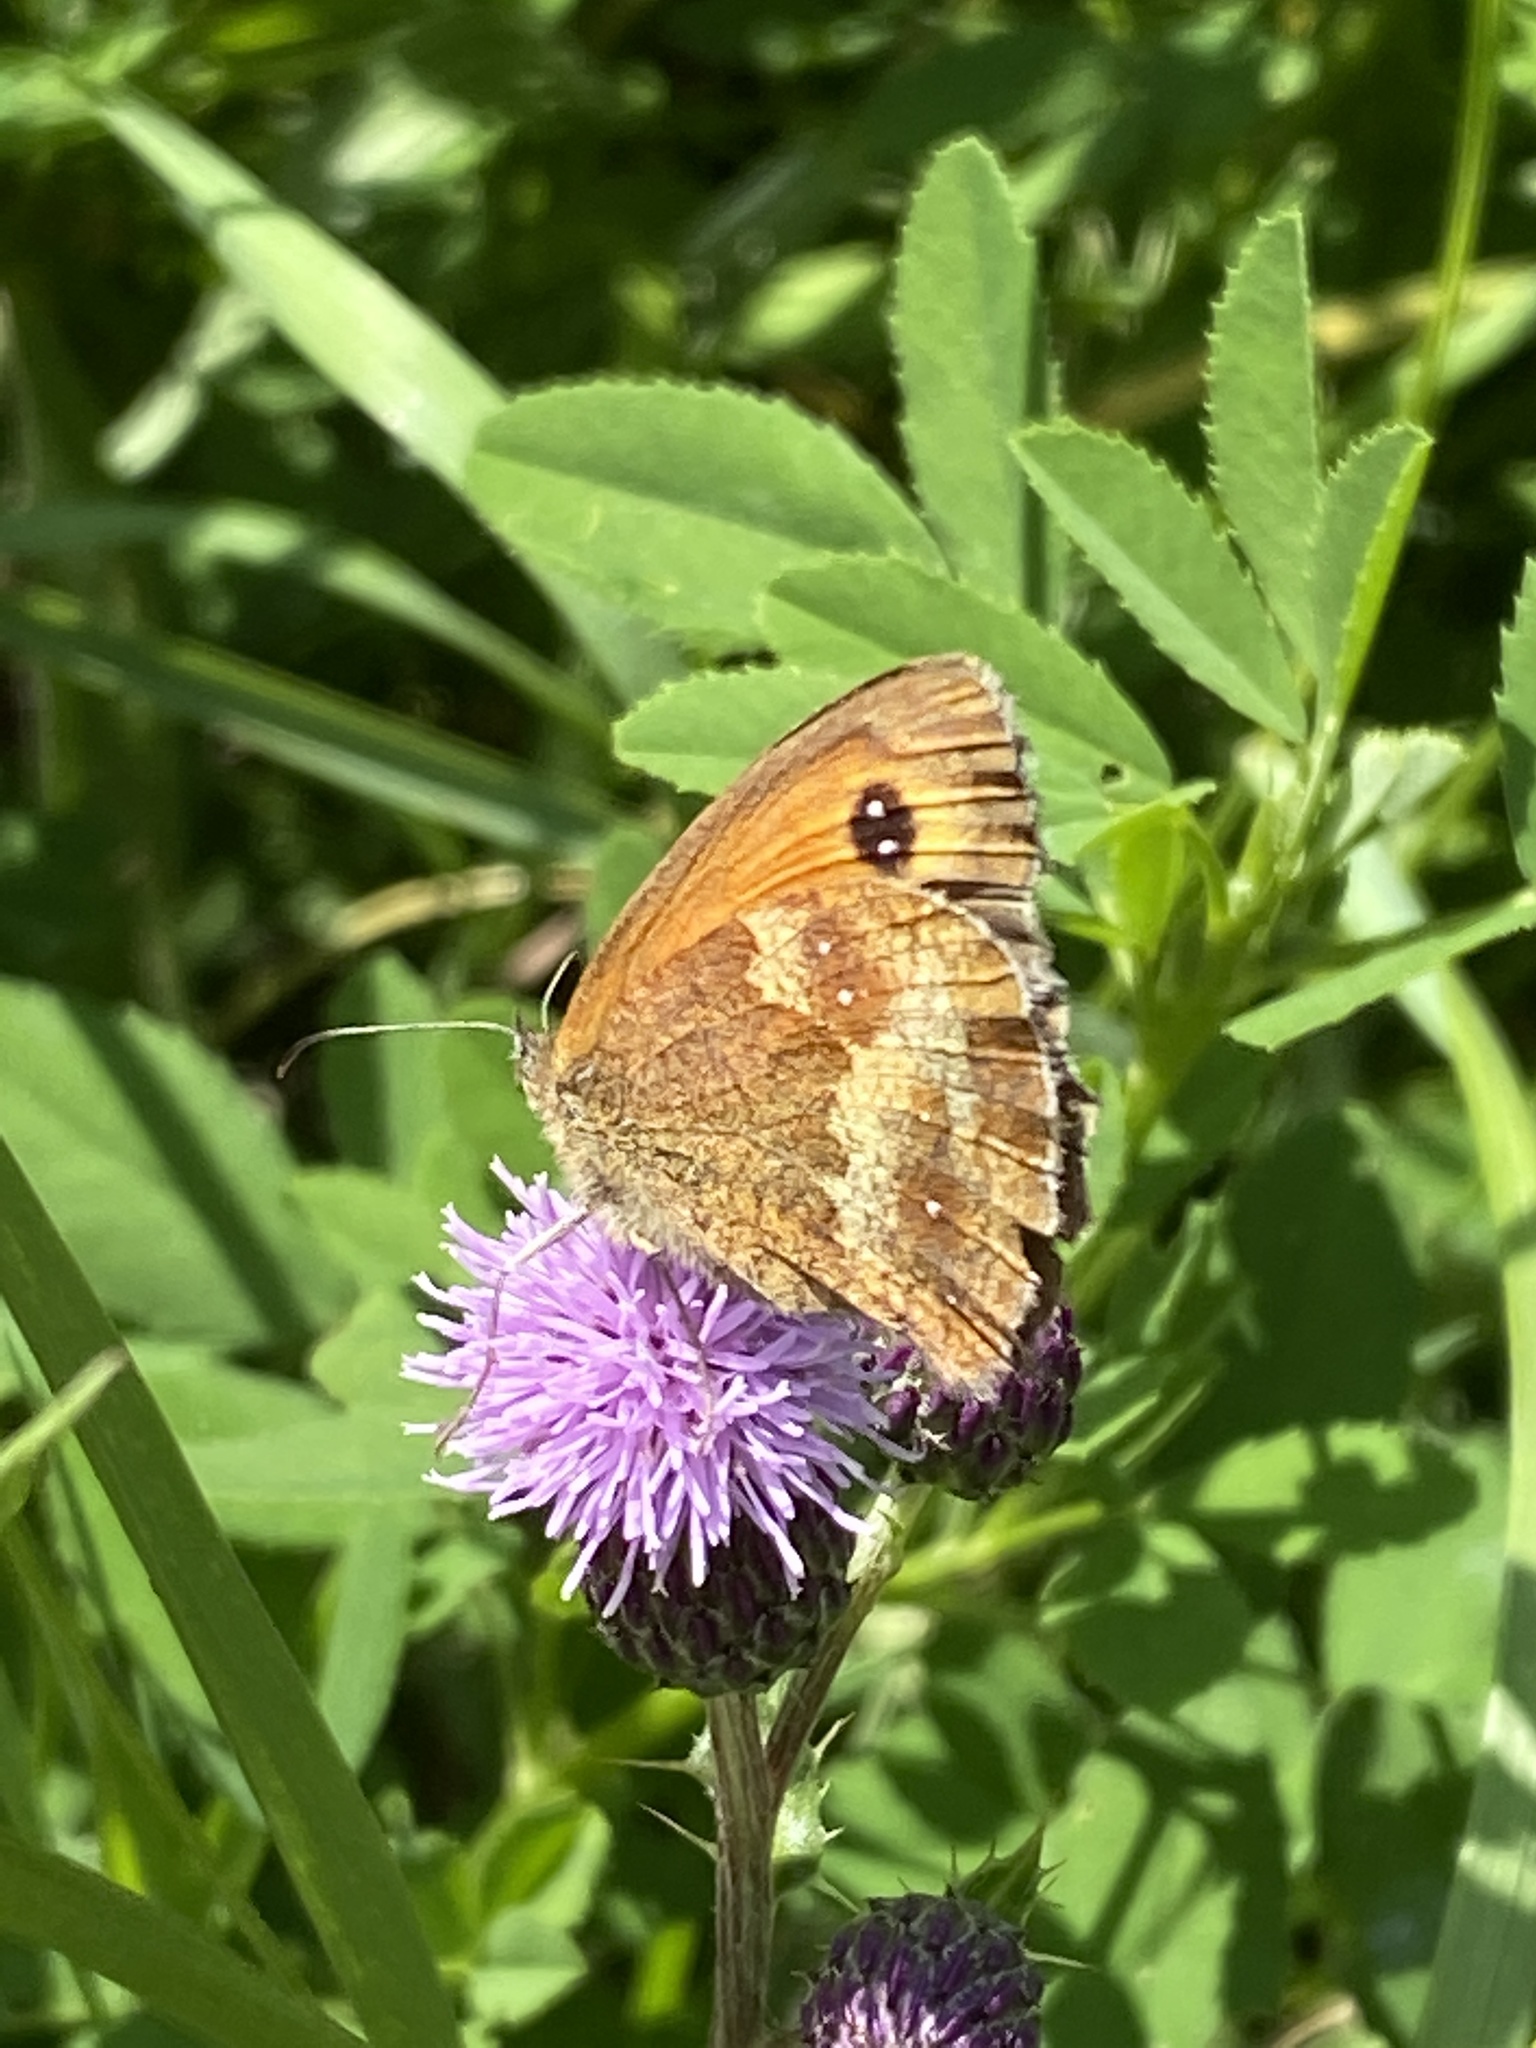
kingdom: Animalia
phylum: Arthropoda
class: Insecta
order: Lepidoptera
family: Nymphalidae
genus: Pyronia
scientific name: Pyronia tithonus
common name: Gatekeeper
